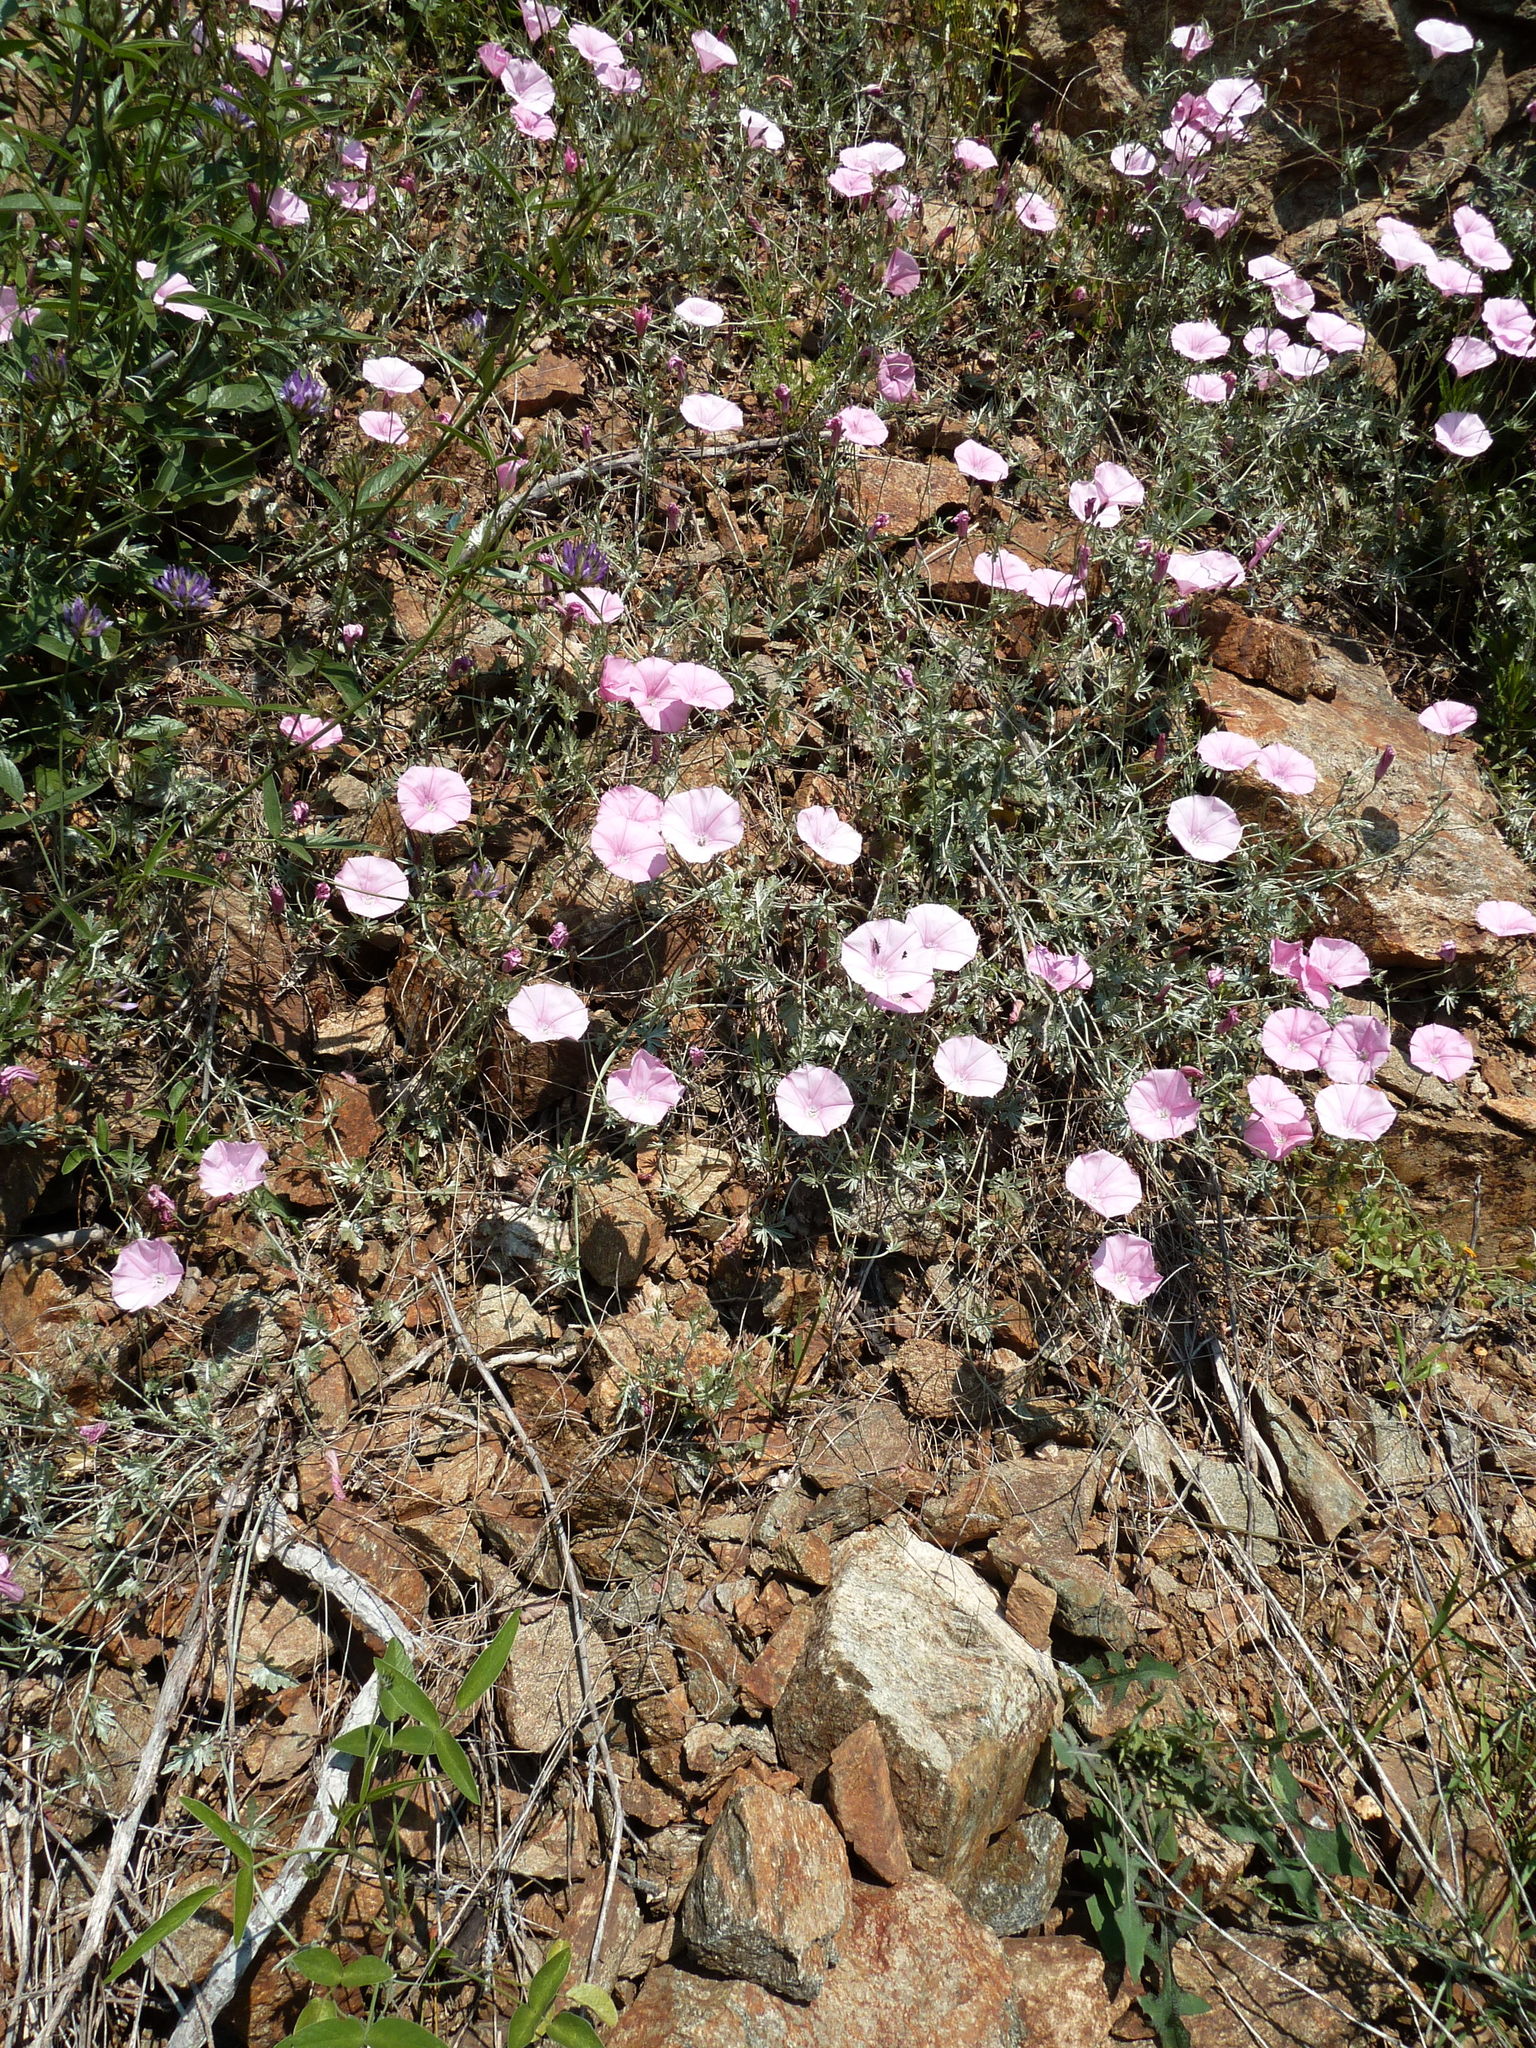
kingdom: Plantae
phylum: Tracheophyta
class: Magnoliopsida
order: Solanales
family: Convolvulaceae
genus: Convolvulus
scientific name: Convolvulus elegantissimus
